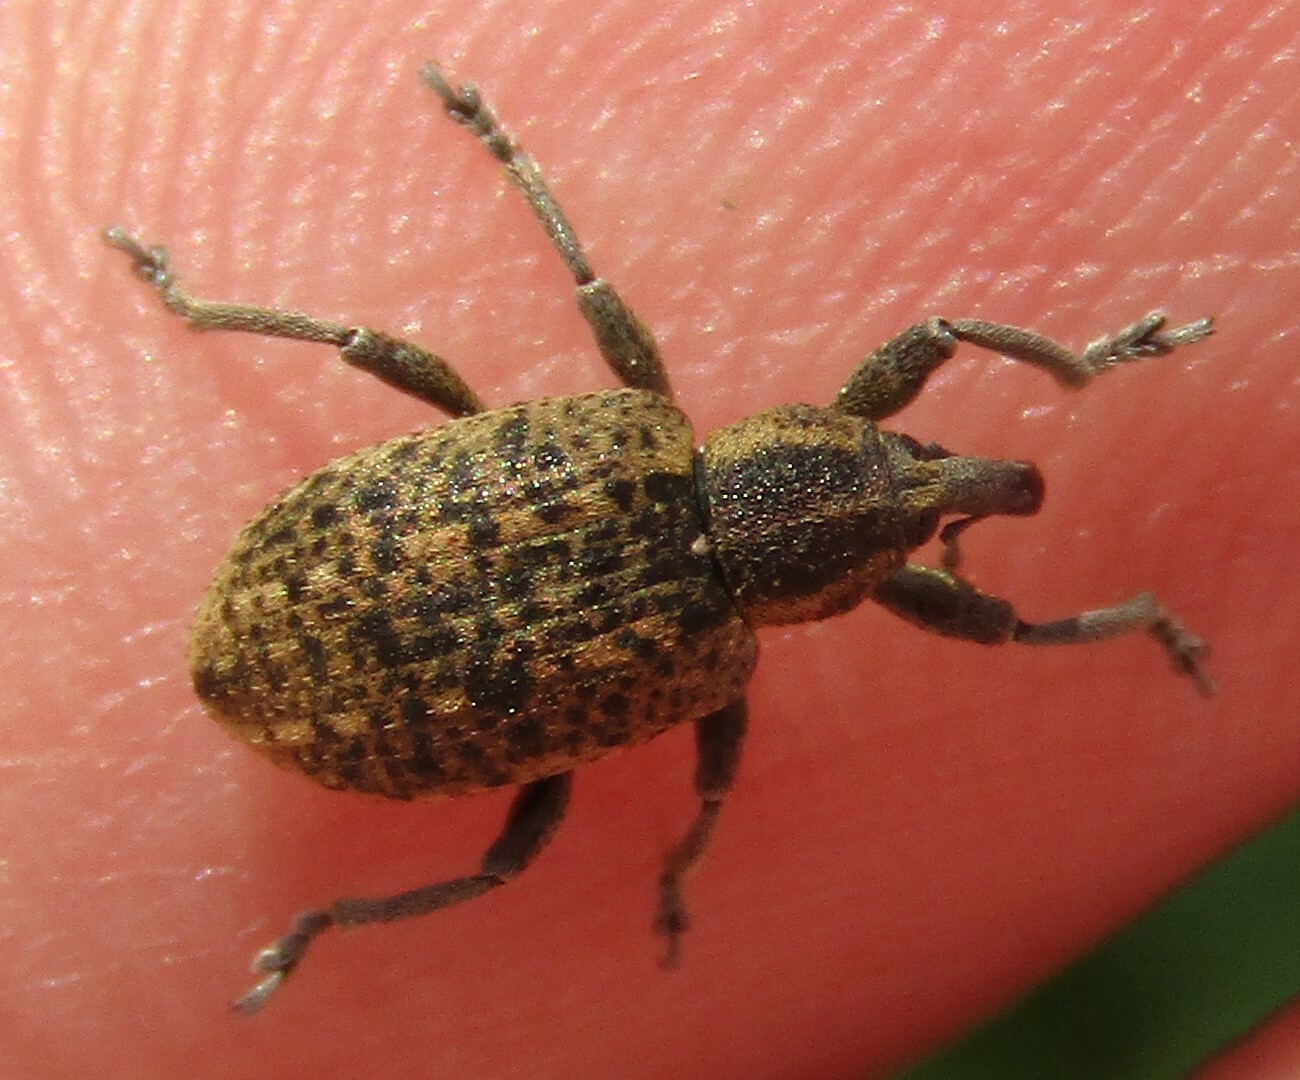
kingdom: Animalia
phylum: Arthropoda
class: Insecta
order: Coleoptera
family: Curculionidae
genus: Hypera
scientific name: Hypera conmaculata
